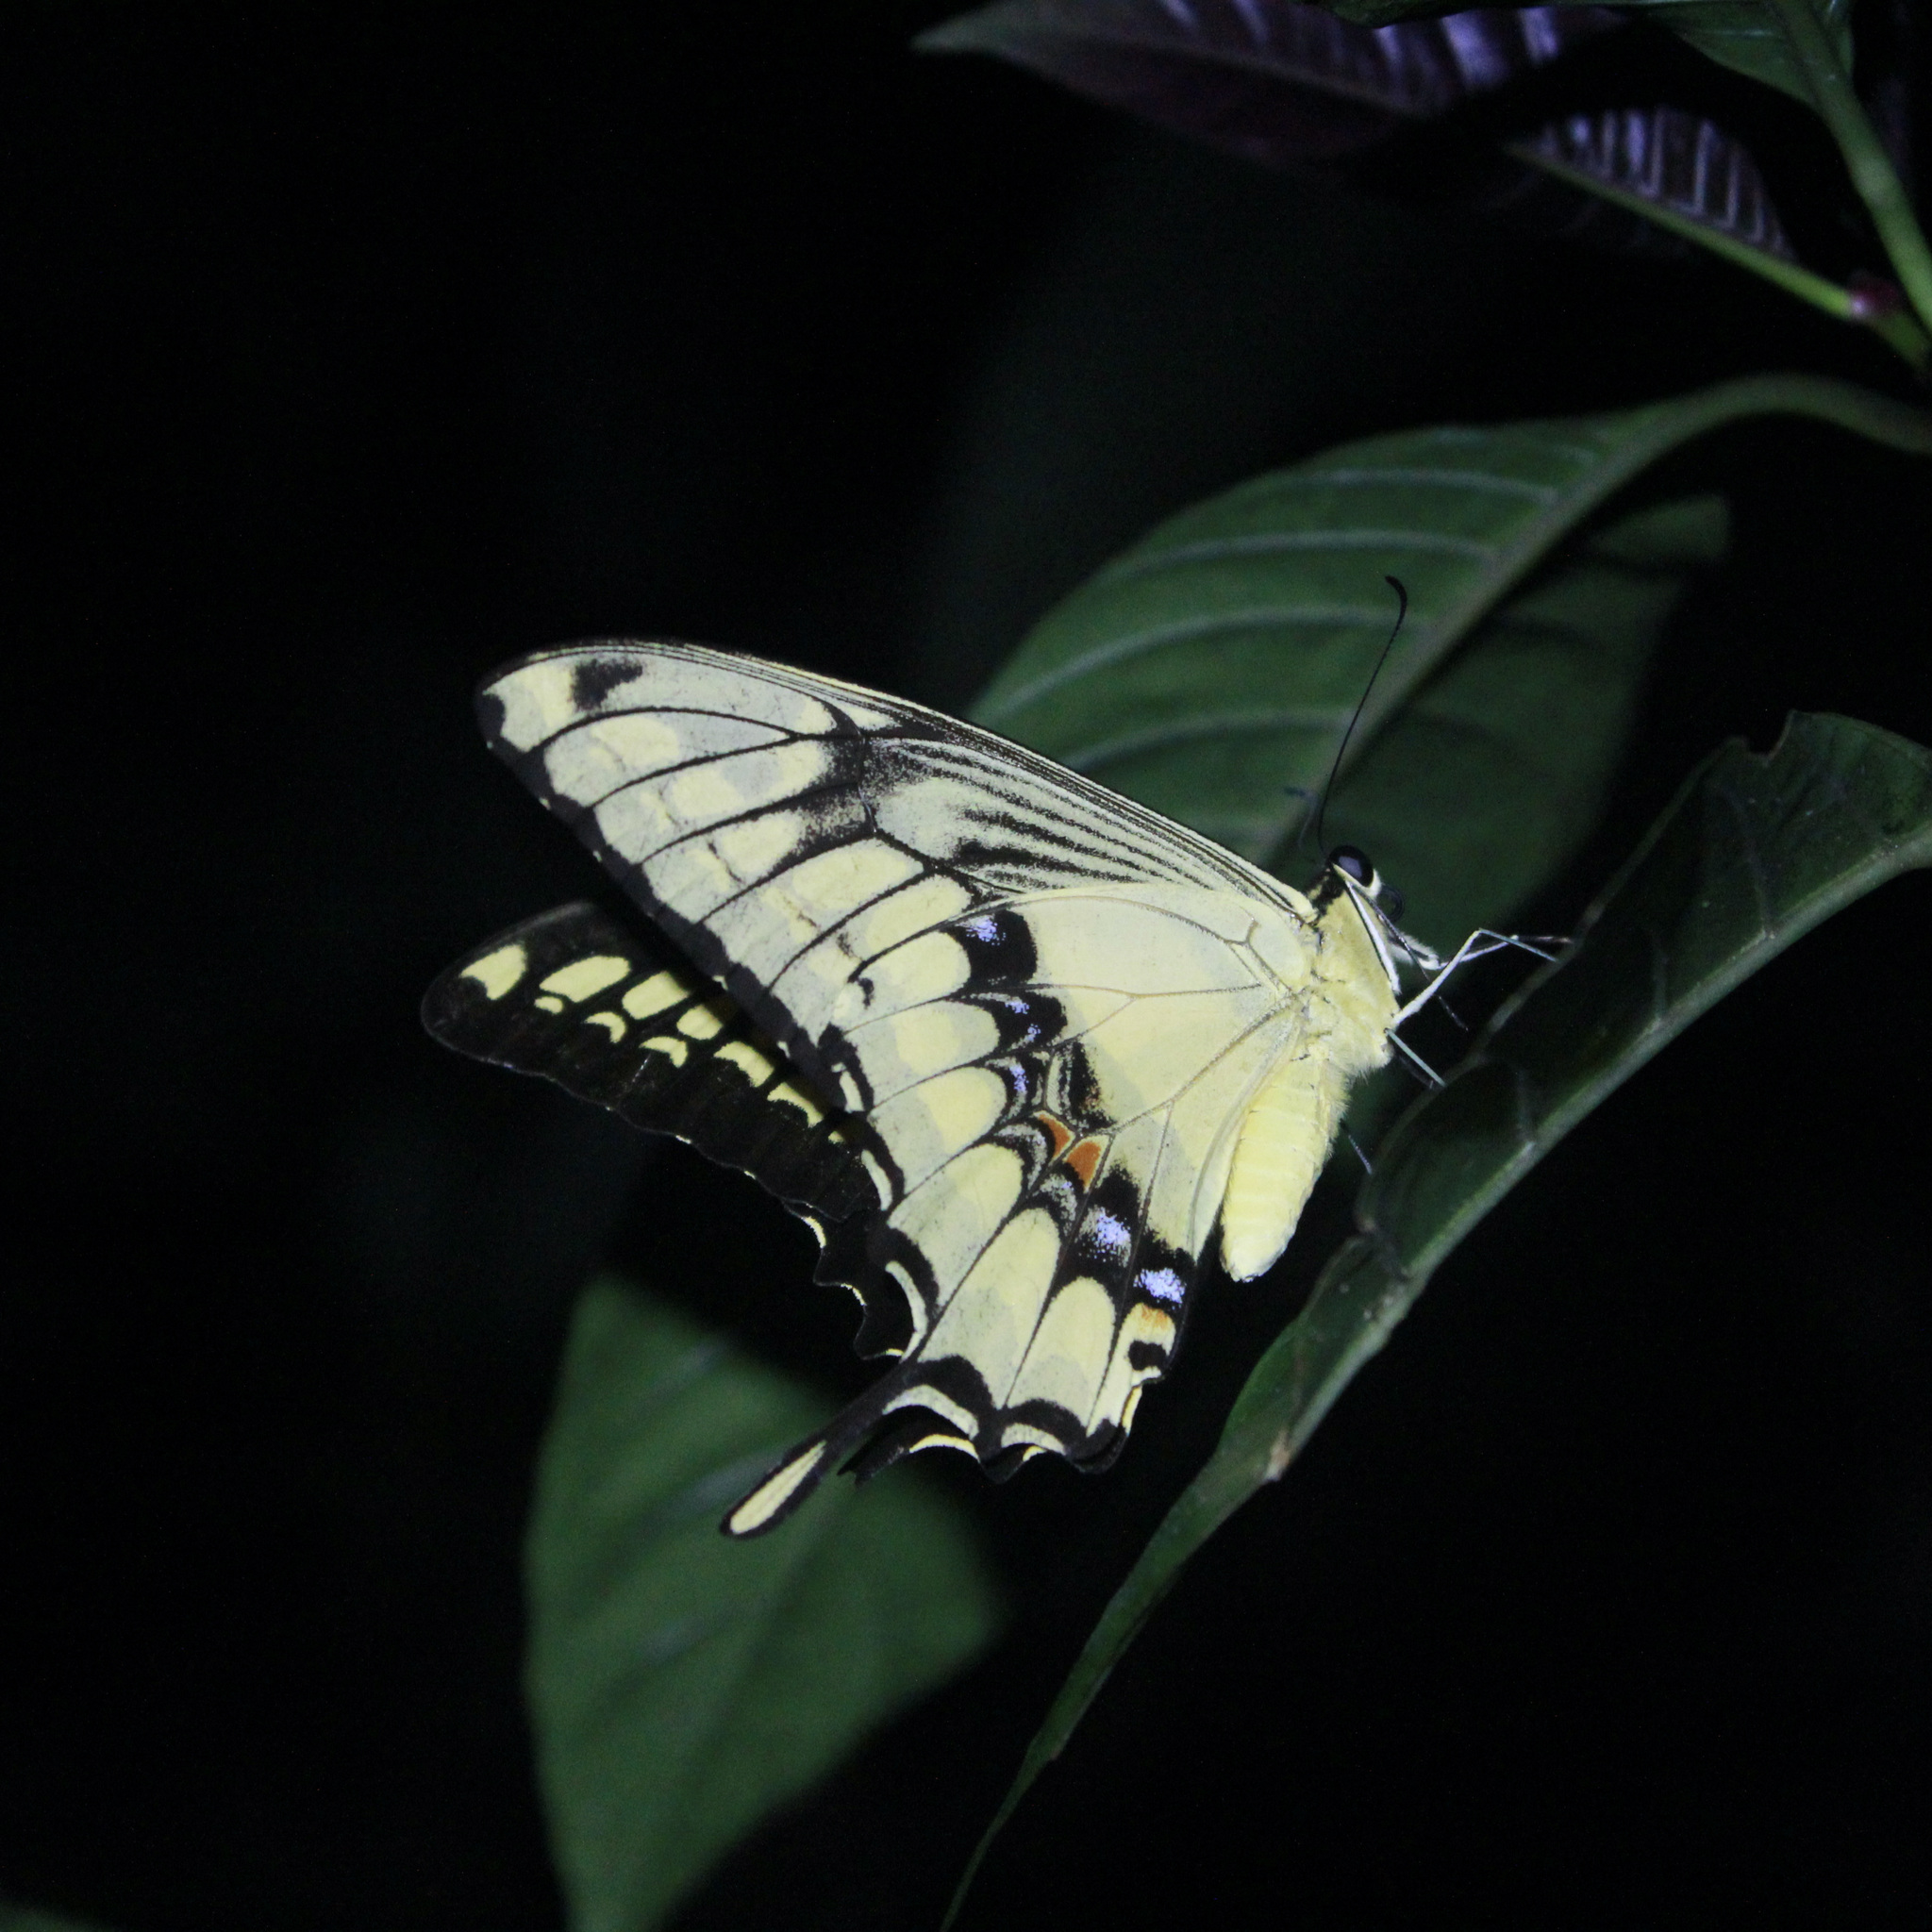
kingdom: Animalia
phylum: Arthropoda
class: Insecta
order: Lepidoptera
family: Papilionidae
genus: Papilio
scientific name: Papilio thoas
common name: King swallowtail
